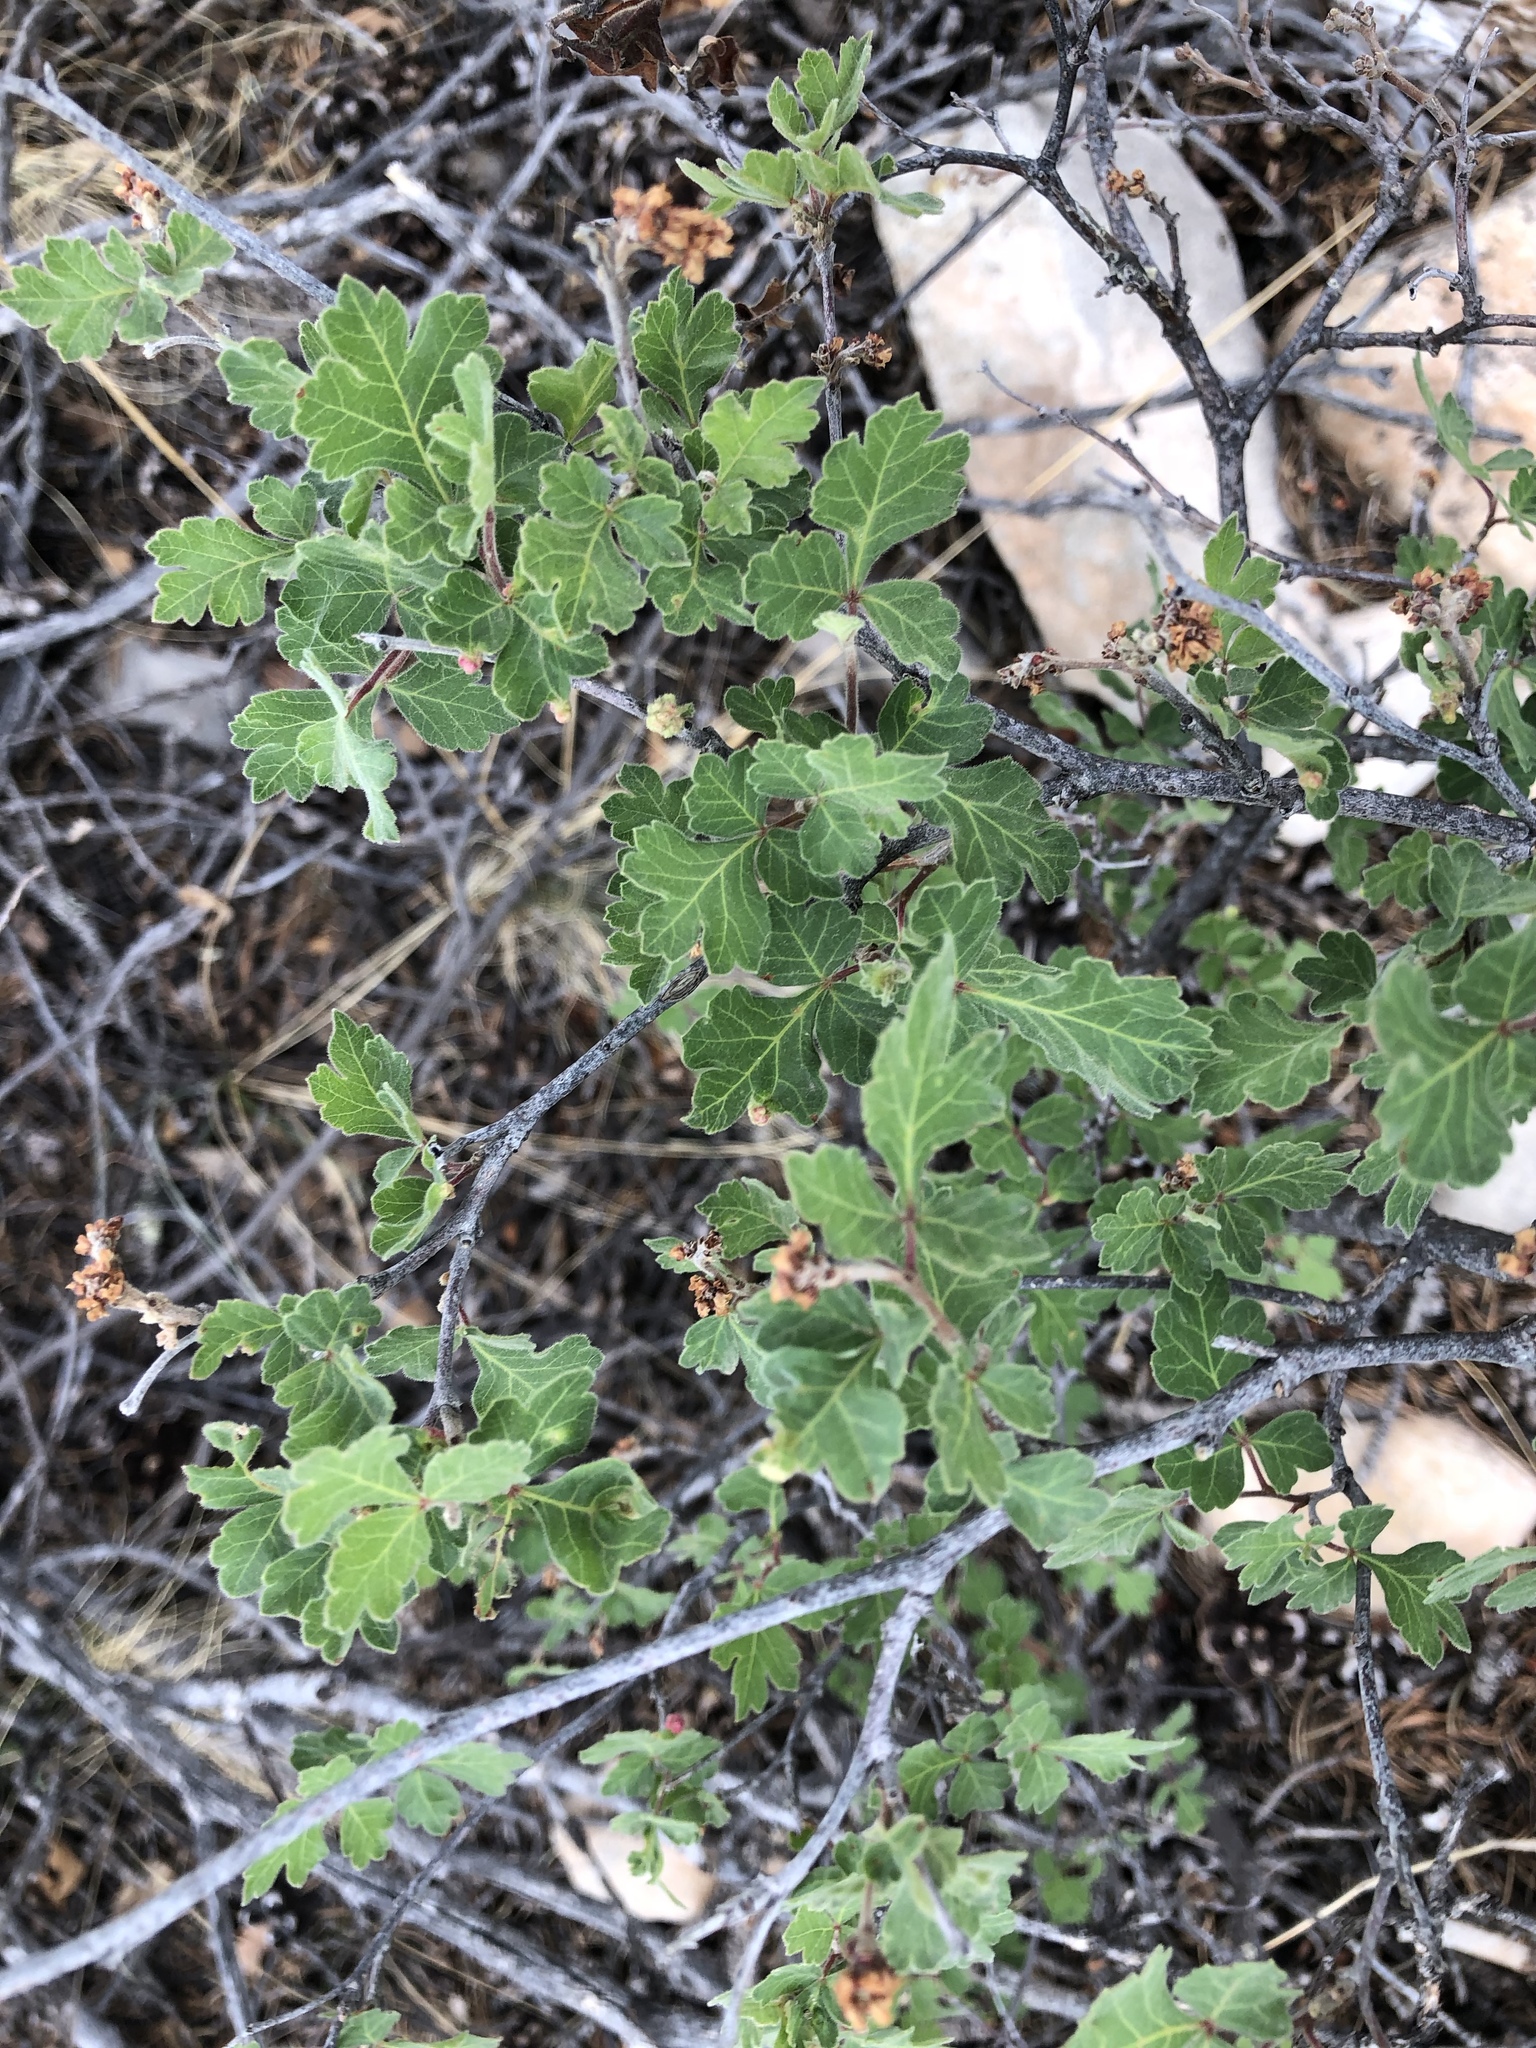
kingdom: Plantae
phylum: Tracheophyta
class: Magnoliopsida
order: Sapindales
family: Anacardiaceae
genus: Rhus
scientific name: Rhus aromatica
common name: Aromatic sumac
